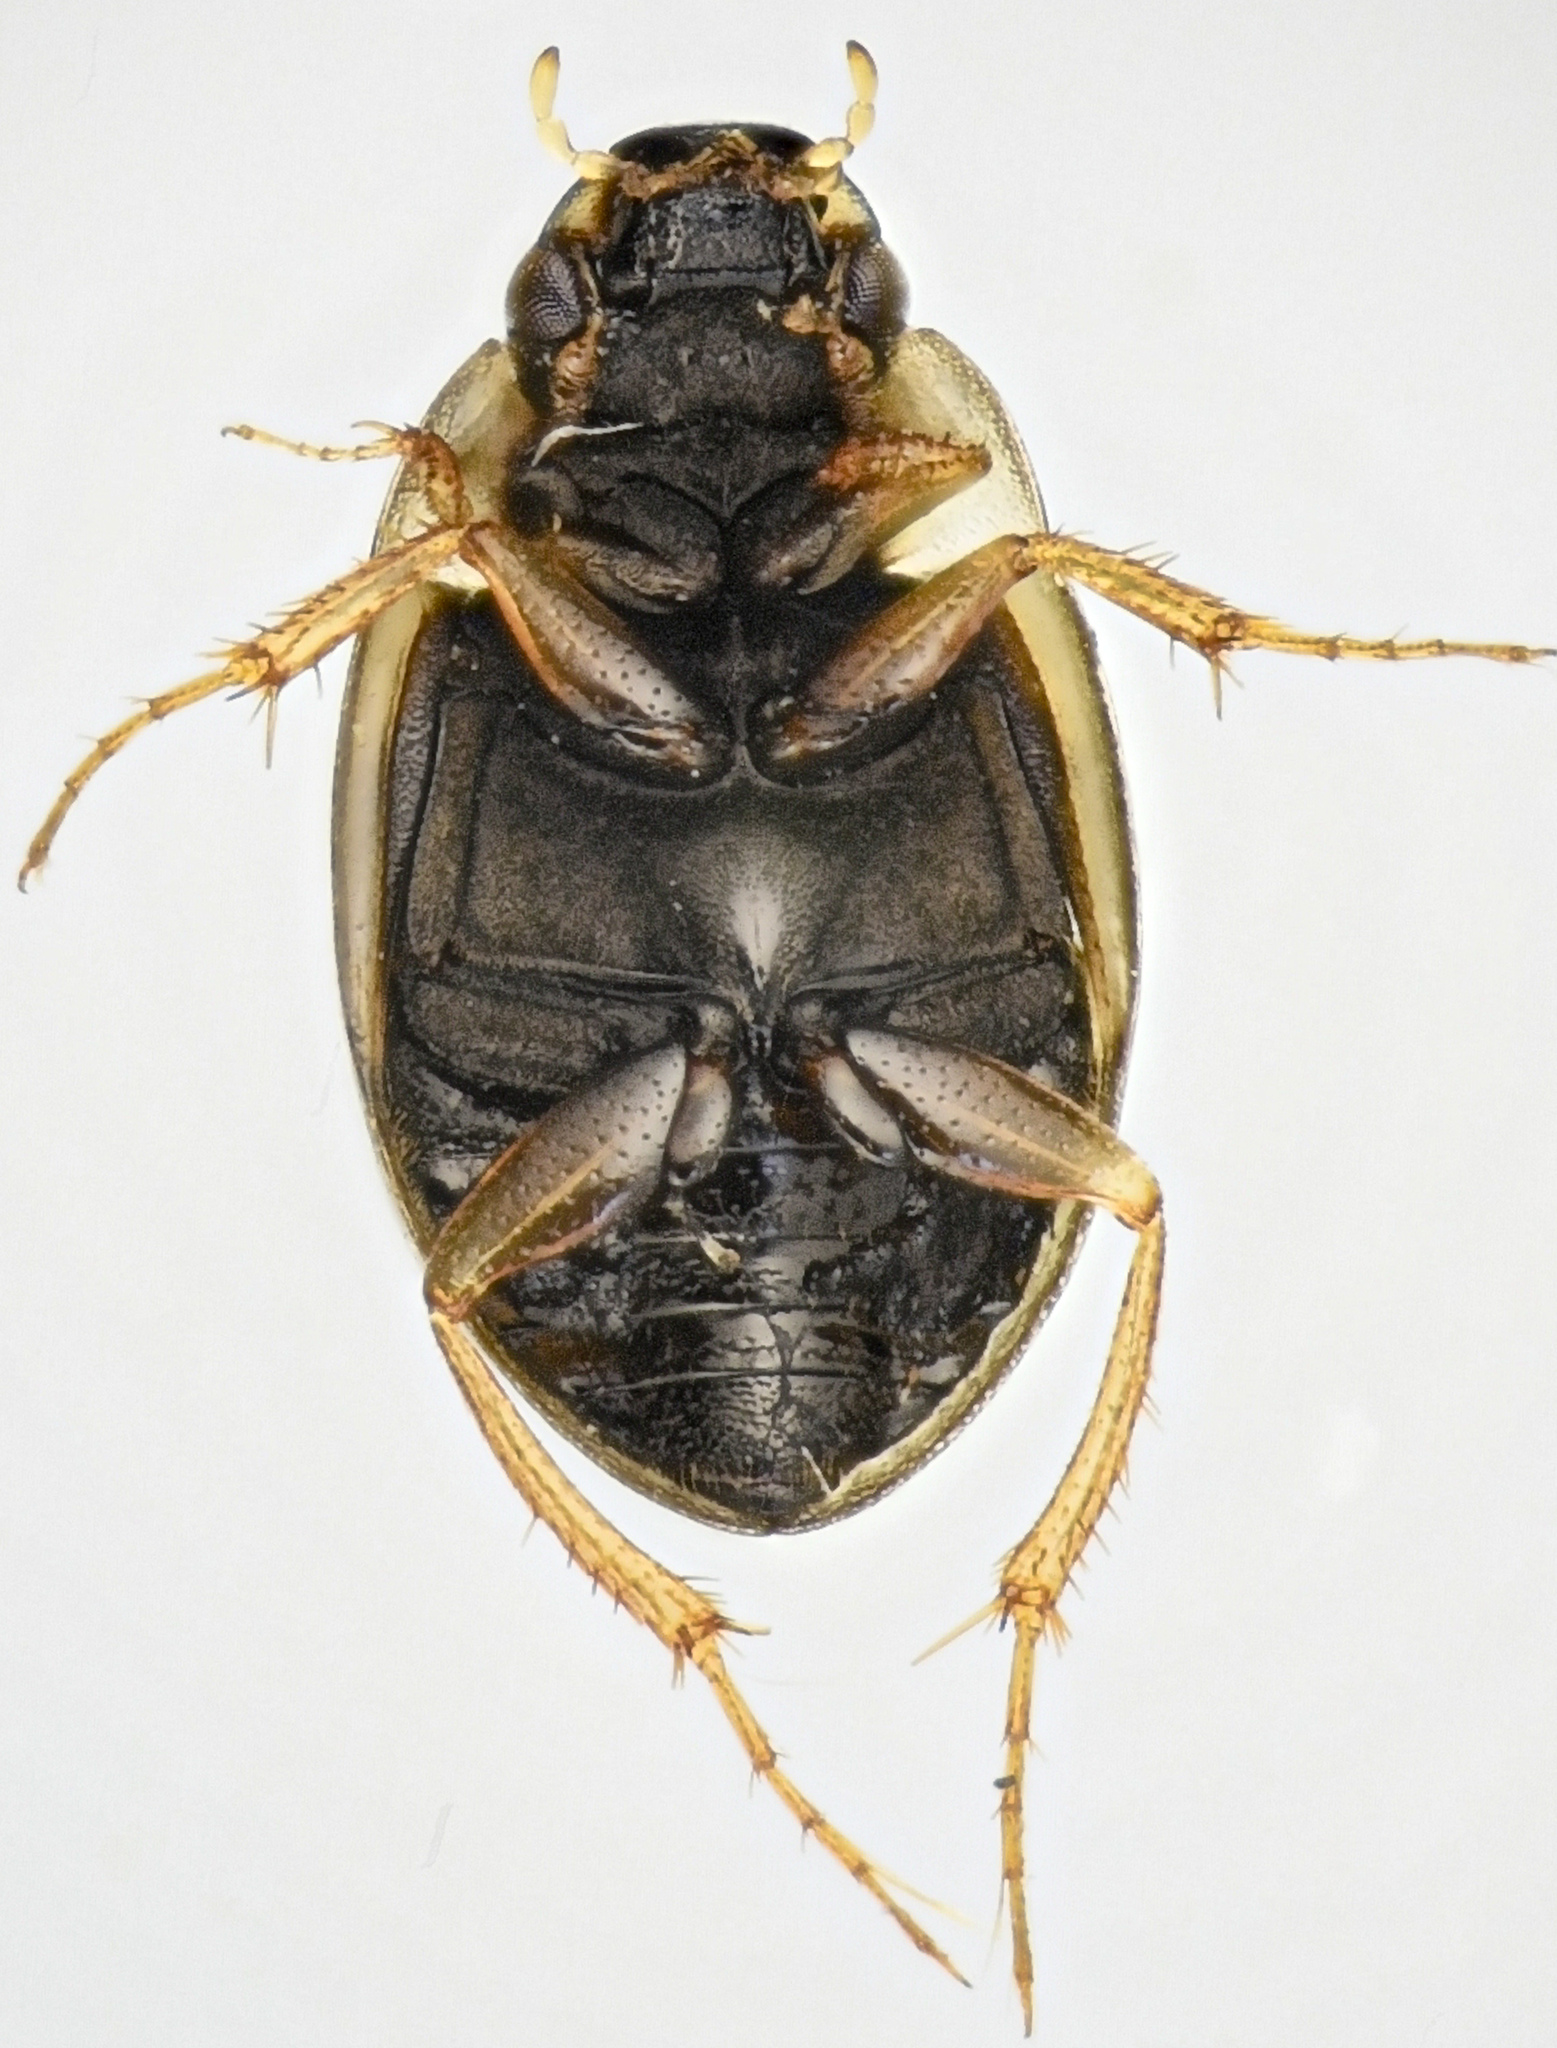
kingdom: Animalia
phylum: Arthropoda
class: Insecta
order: Coleoptera
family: Hydrophilidae
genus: Laccobius
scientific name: Laccobius
